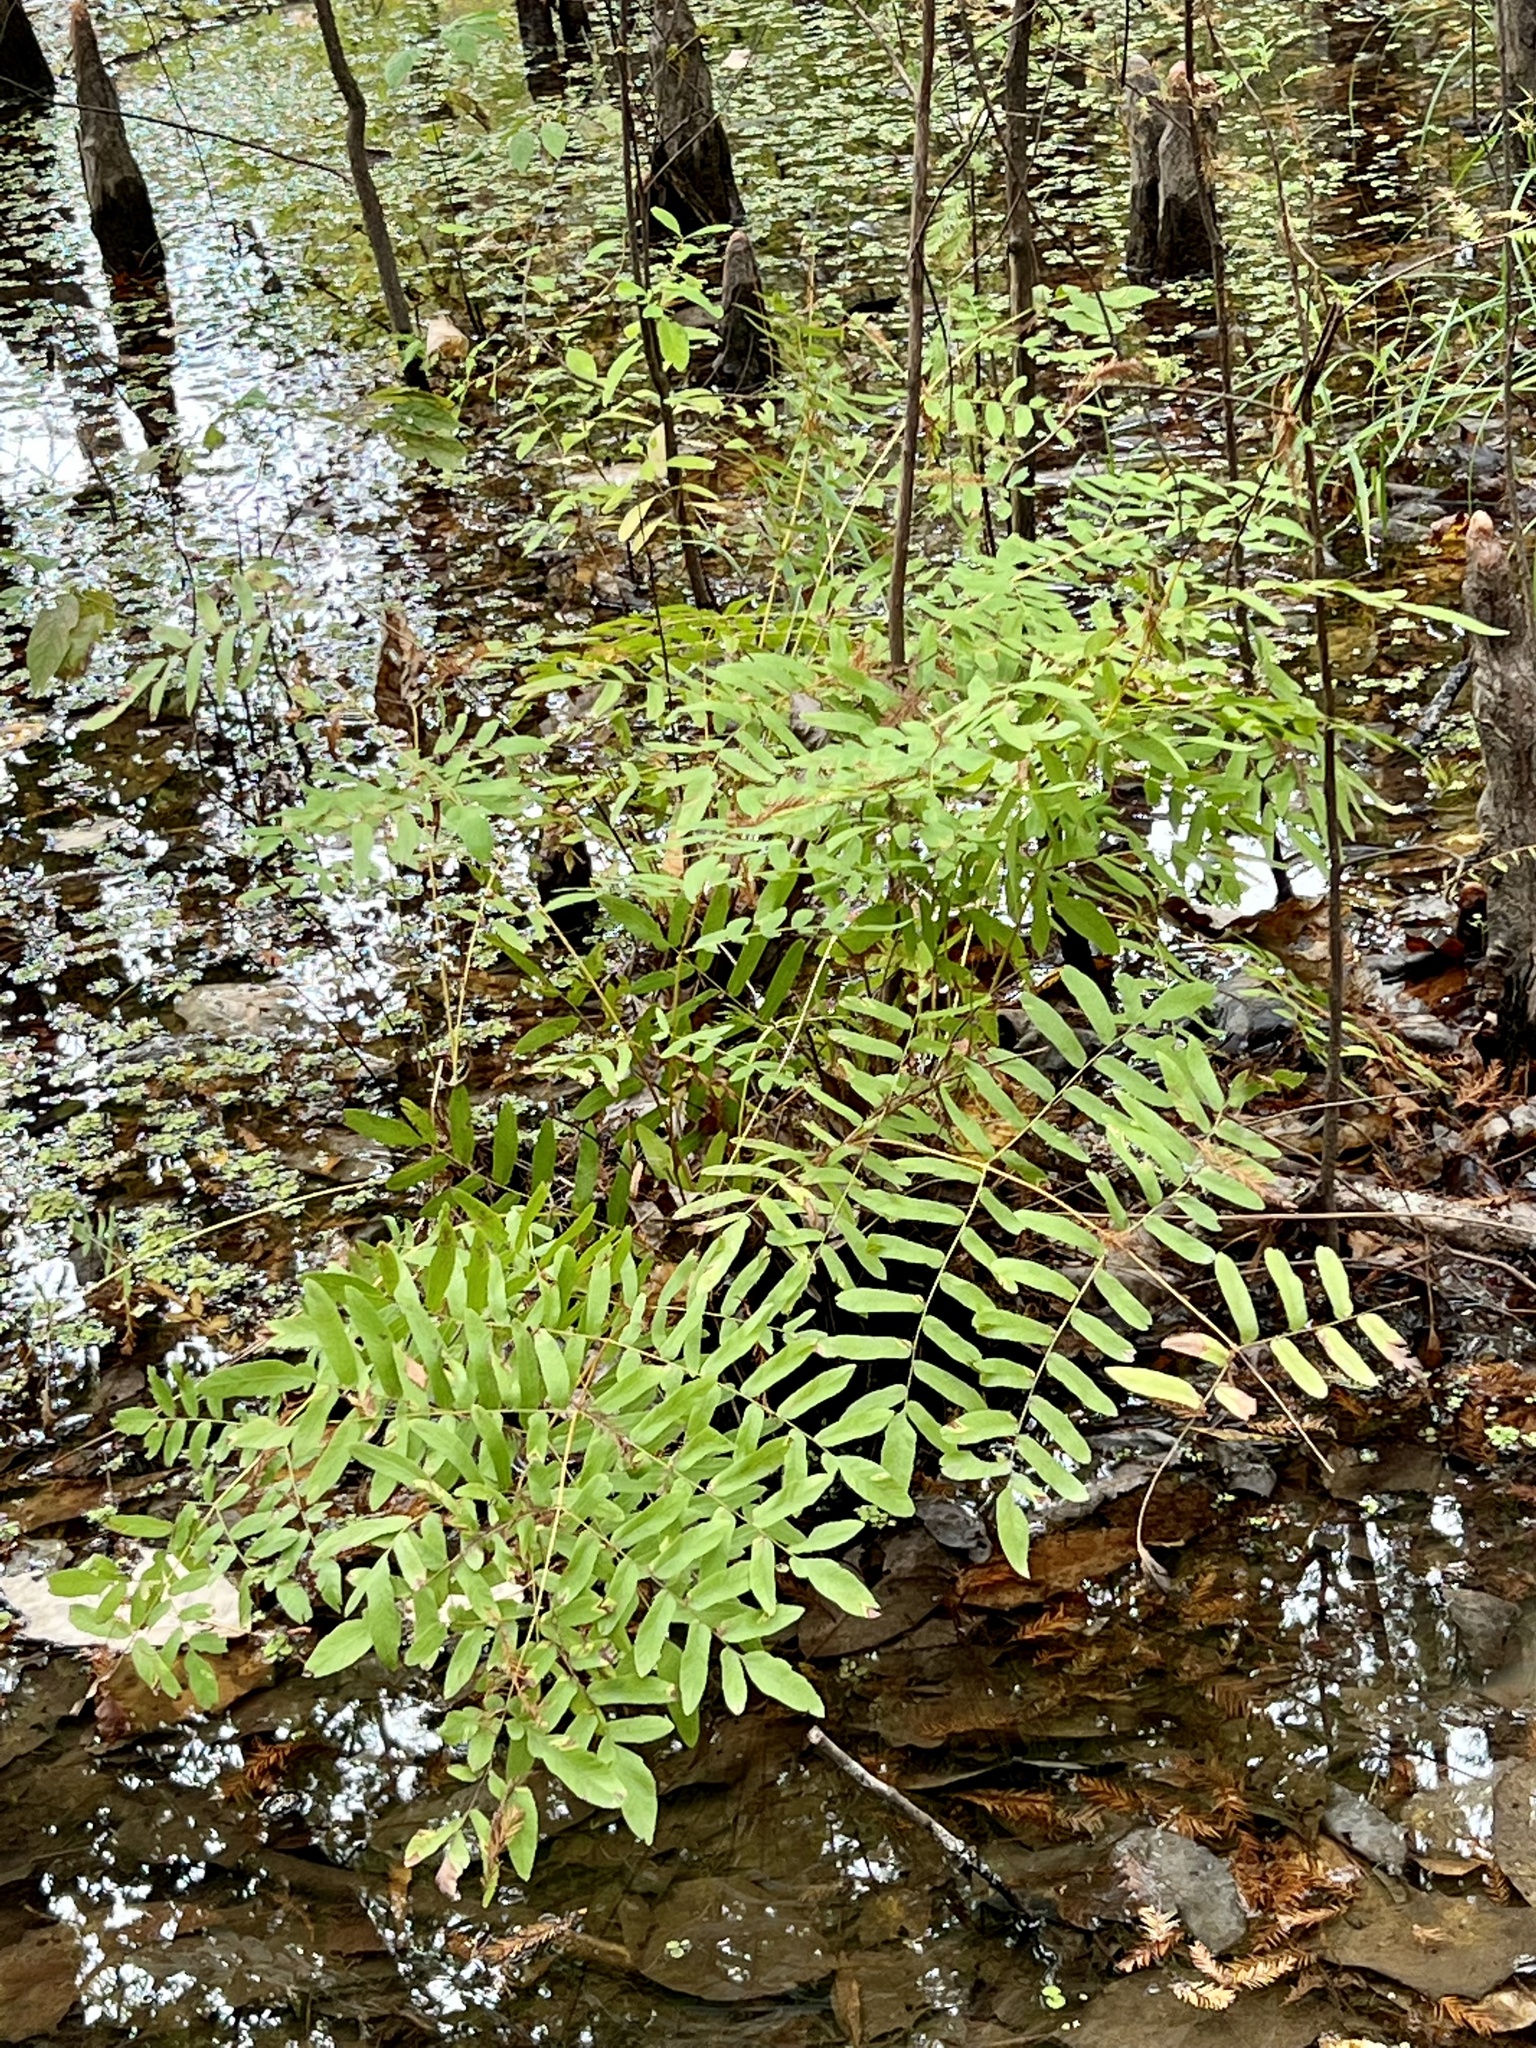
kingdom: Plantae
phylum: Tracheophyta
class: Polypodiopsida
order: Osmundales
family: Osmundaceae
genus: Osmunda
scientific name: Osmunda spectabilis
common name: American royal fern
